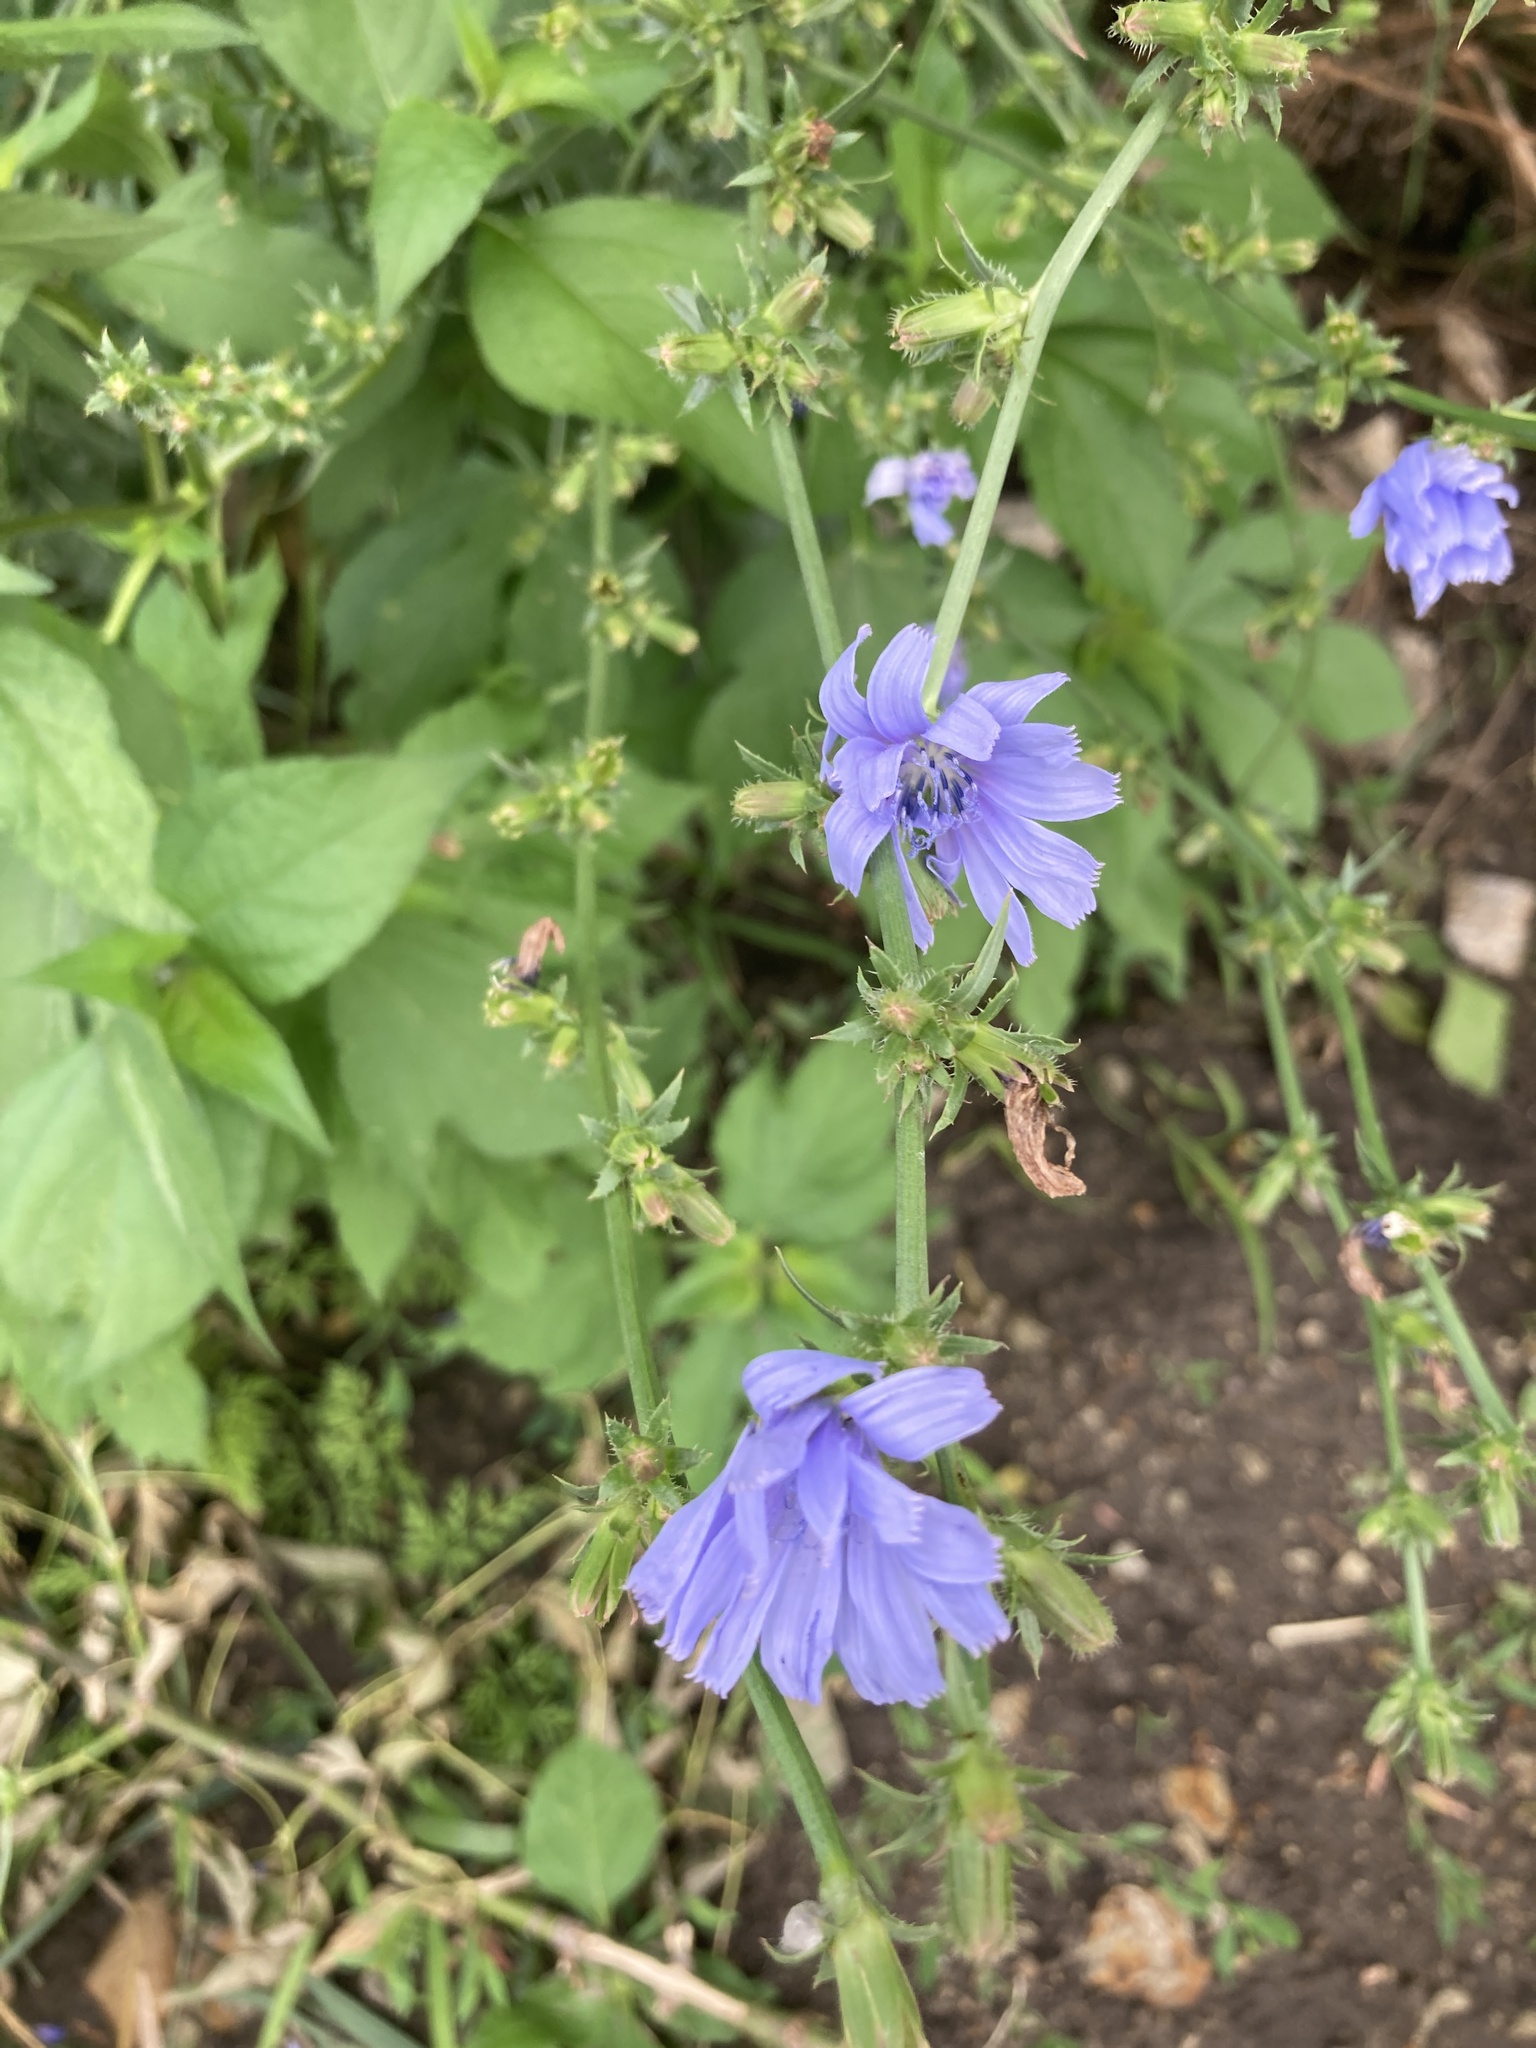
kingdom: Plantae
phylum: Tracheophyta
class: Magnoliopsida
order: Asterales
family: Asteraceae
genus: Cichorium
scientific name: Cichorium intybus
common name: Chicory
